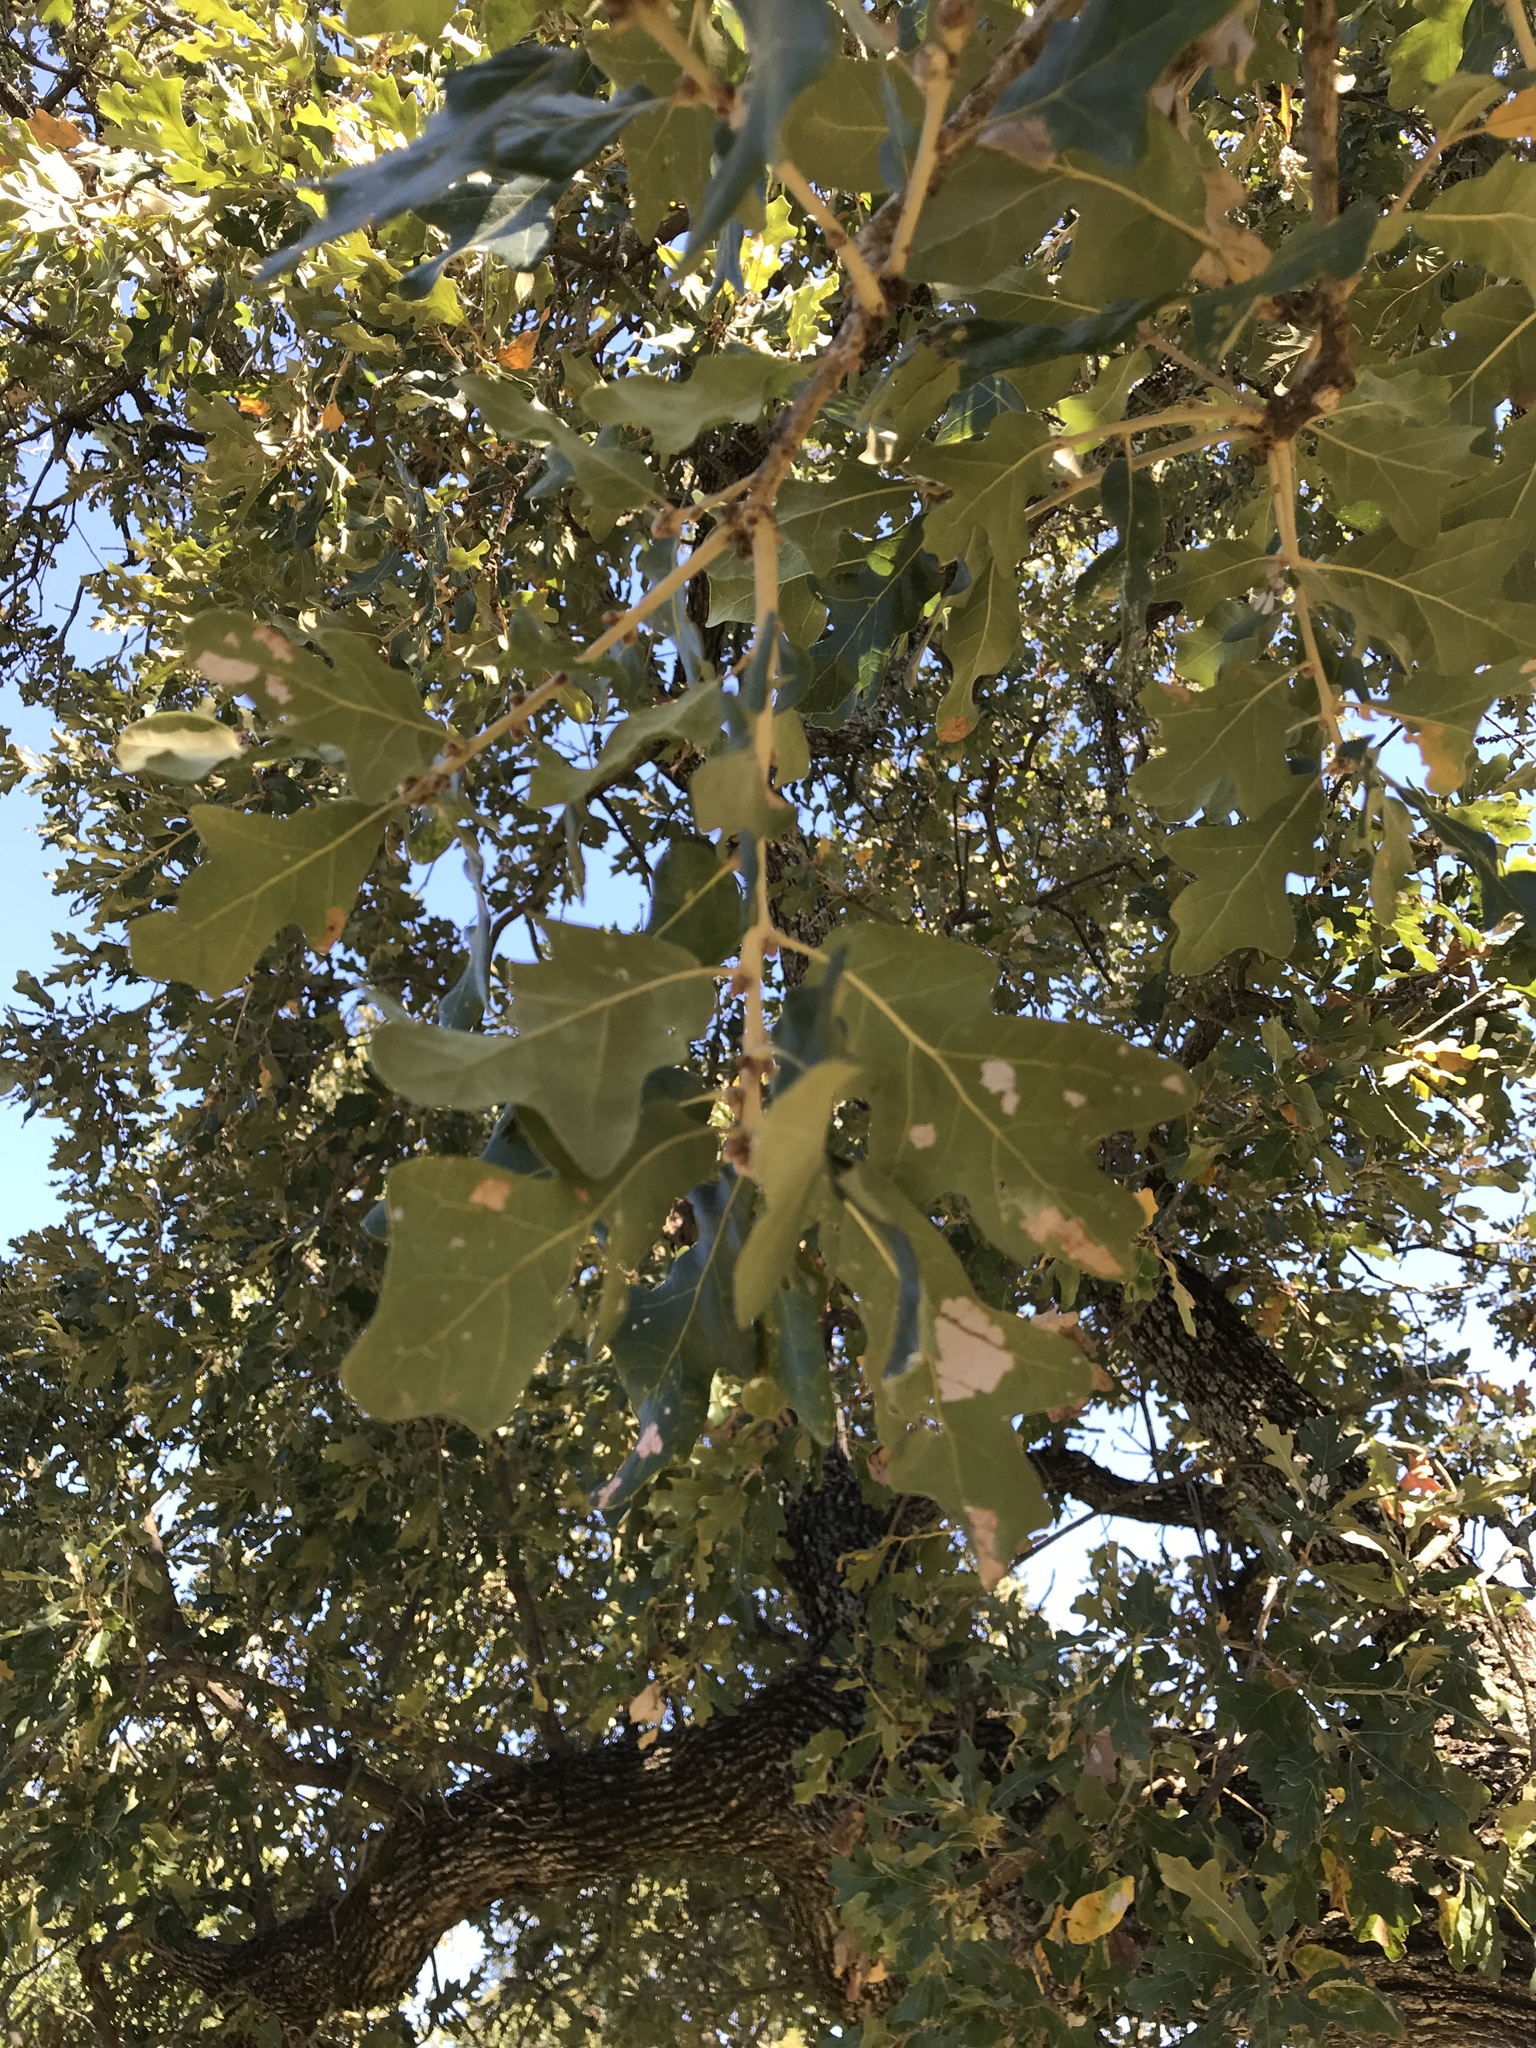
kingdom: Plantae
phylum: Tracheophyta
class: Magnoliopsida
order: Fagales
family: Fagaceae
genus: Quercus
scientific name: Quercus stellata
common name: Post oak
